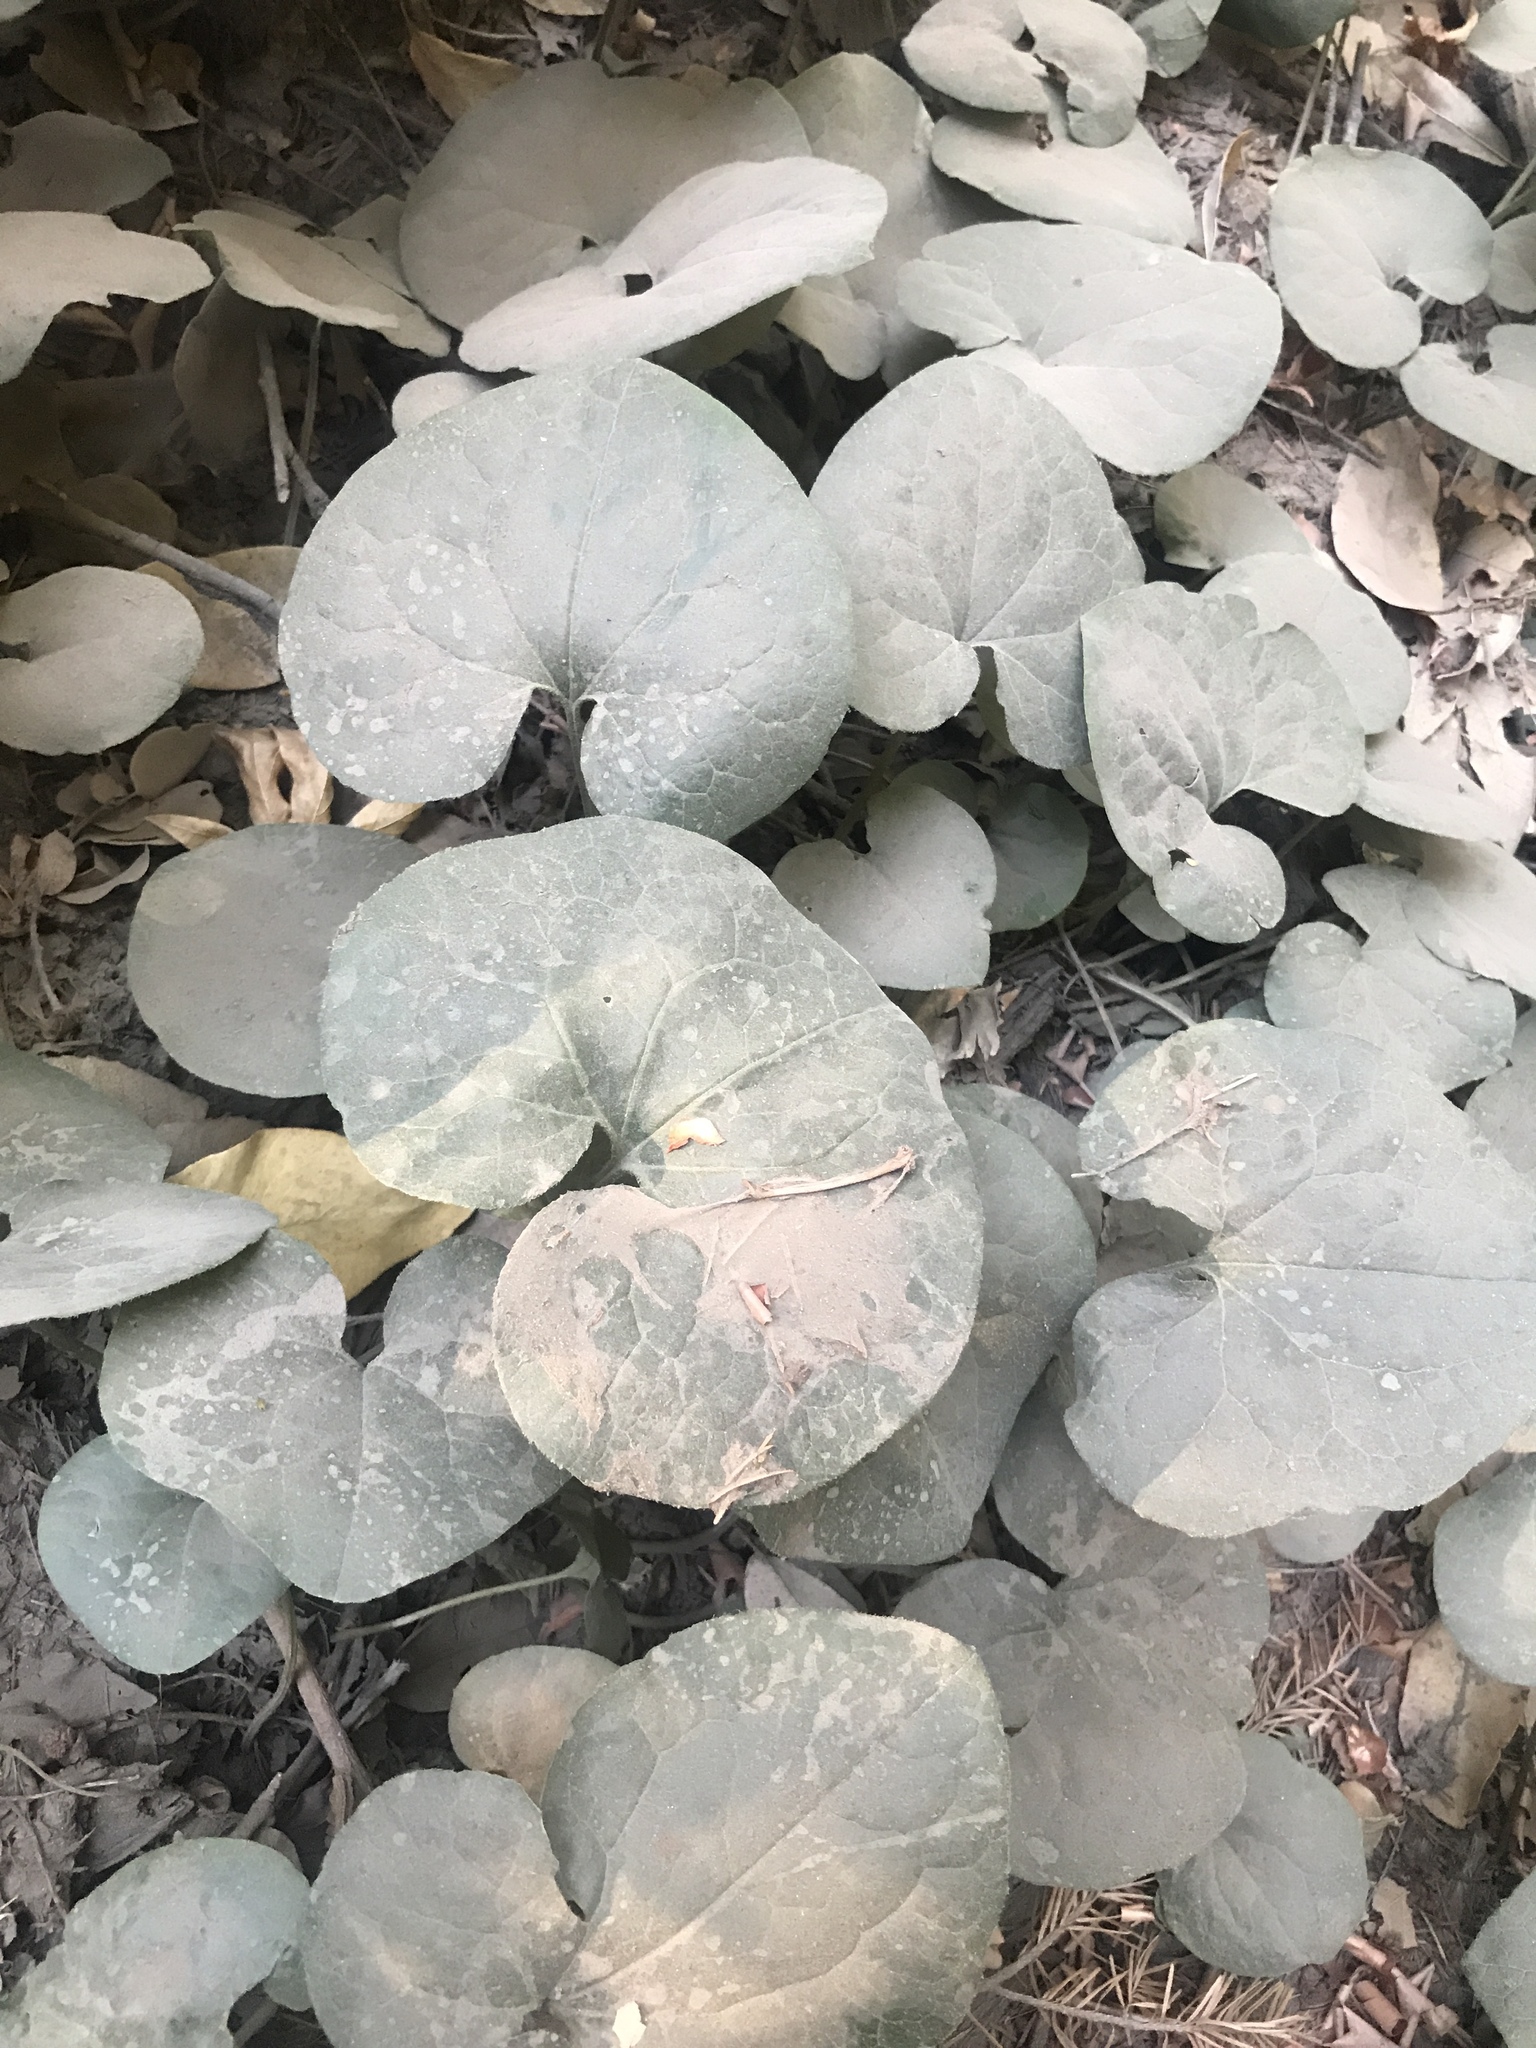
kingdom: Plantae
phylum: Tracheophyta
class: Magnoliopsida
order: Piperales
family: Aristolochiaceae
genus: Asarum
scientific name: Asarum caudatum
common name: Wild ginger
